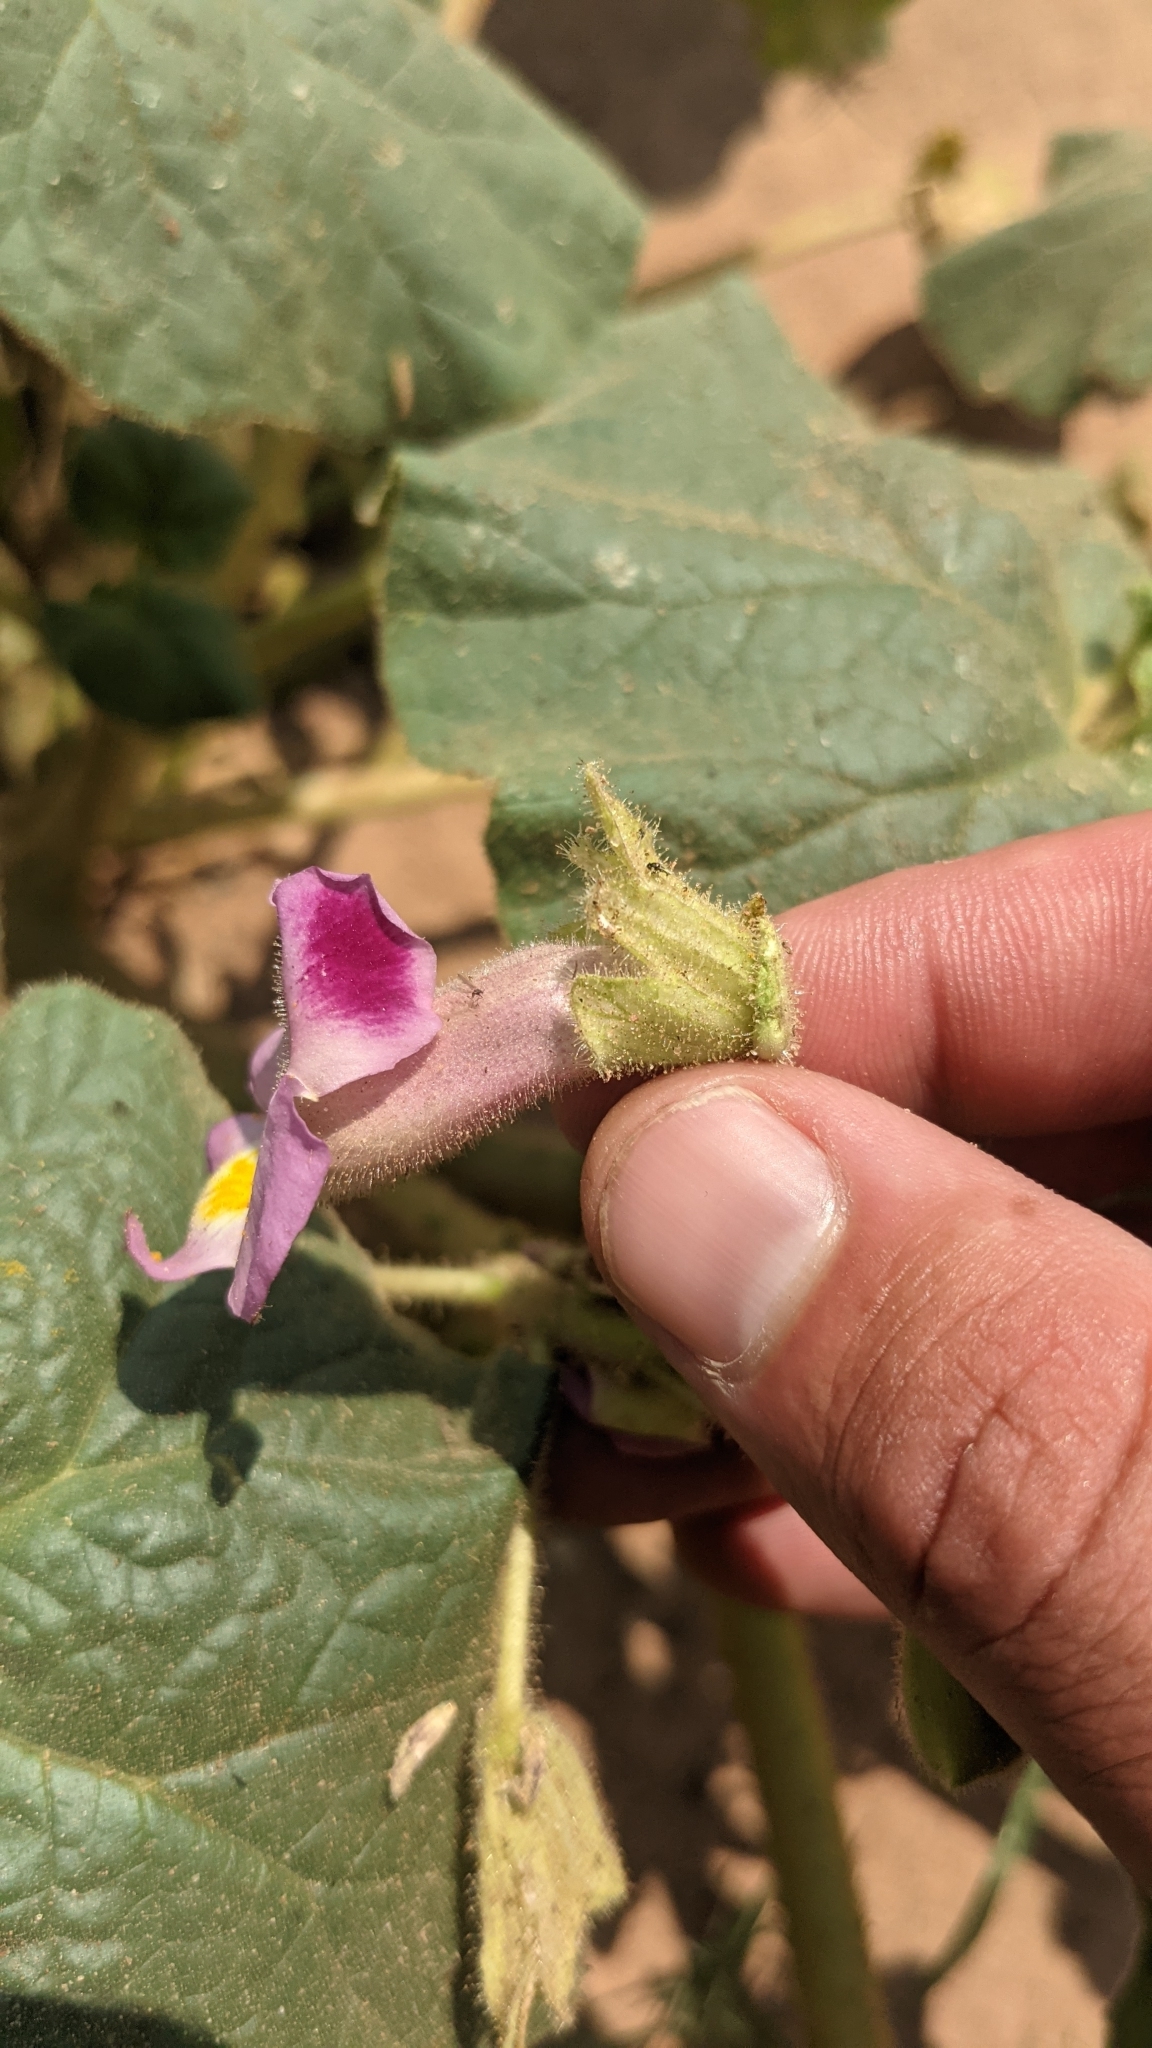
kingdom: Plantae
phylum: Tracheophyta
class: Magnoliopsida
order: Lamiales
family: Martyniaceae
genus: Proboscidea
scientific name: Proboscidea parviflora
